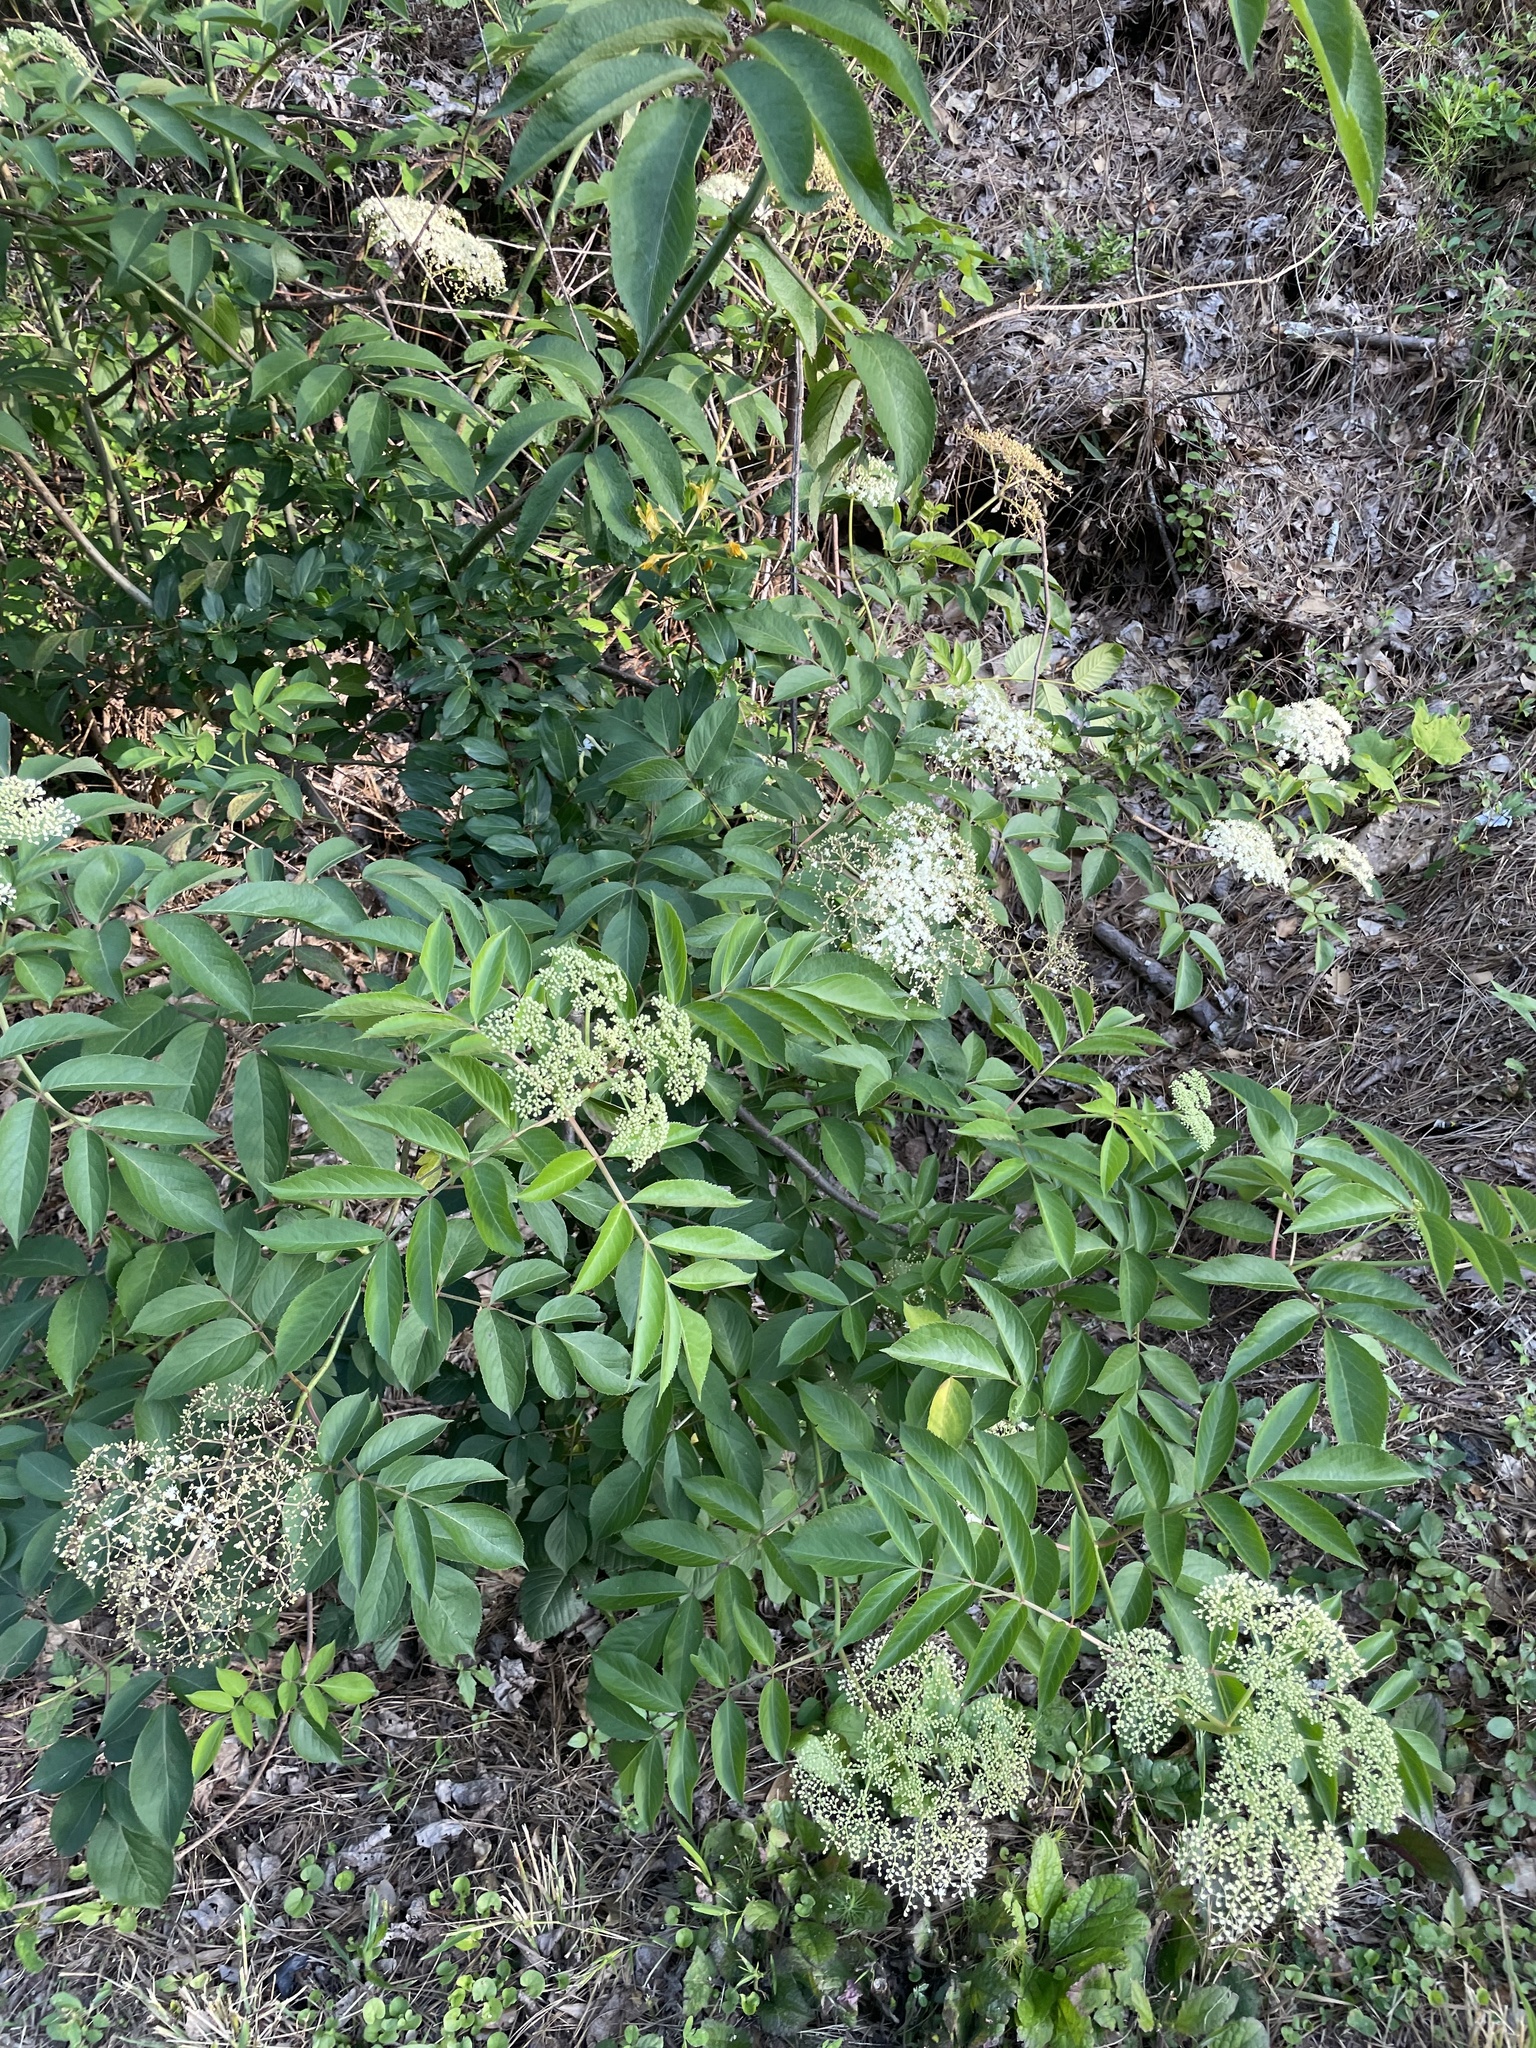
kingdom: Plantae
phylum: Tracheophyta
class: Magnoliopsida
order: Dipsacales
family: Viburnaceae
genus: Sambucus
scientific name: Sambucus canadensis
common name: American elder
